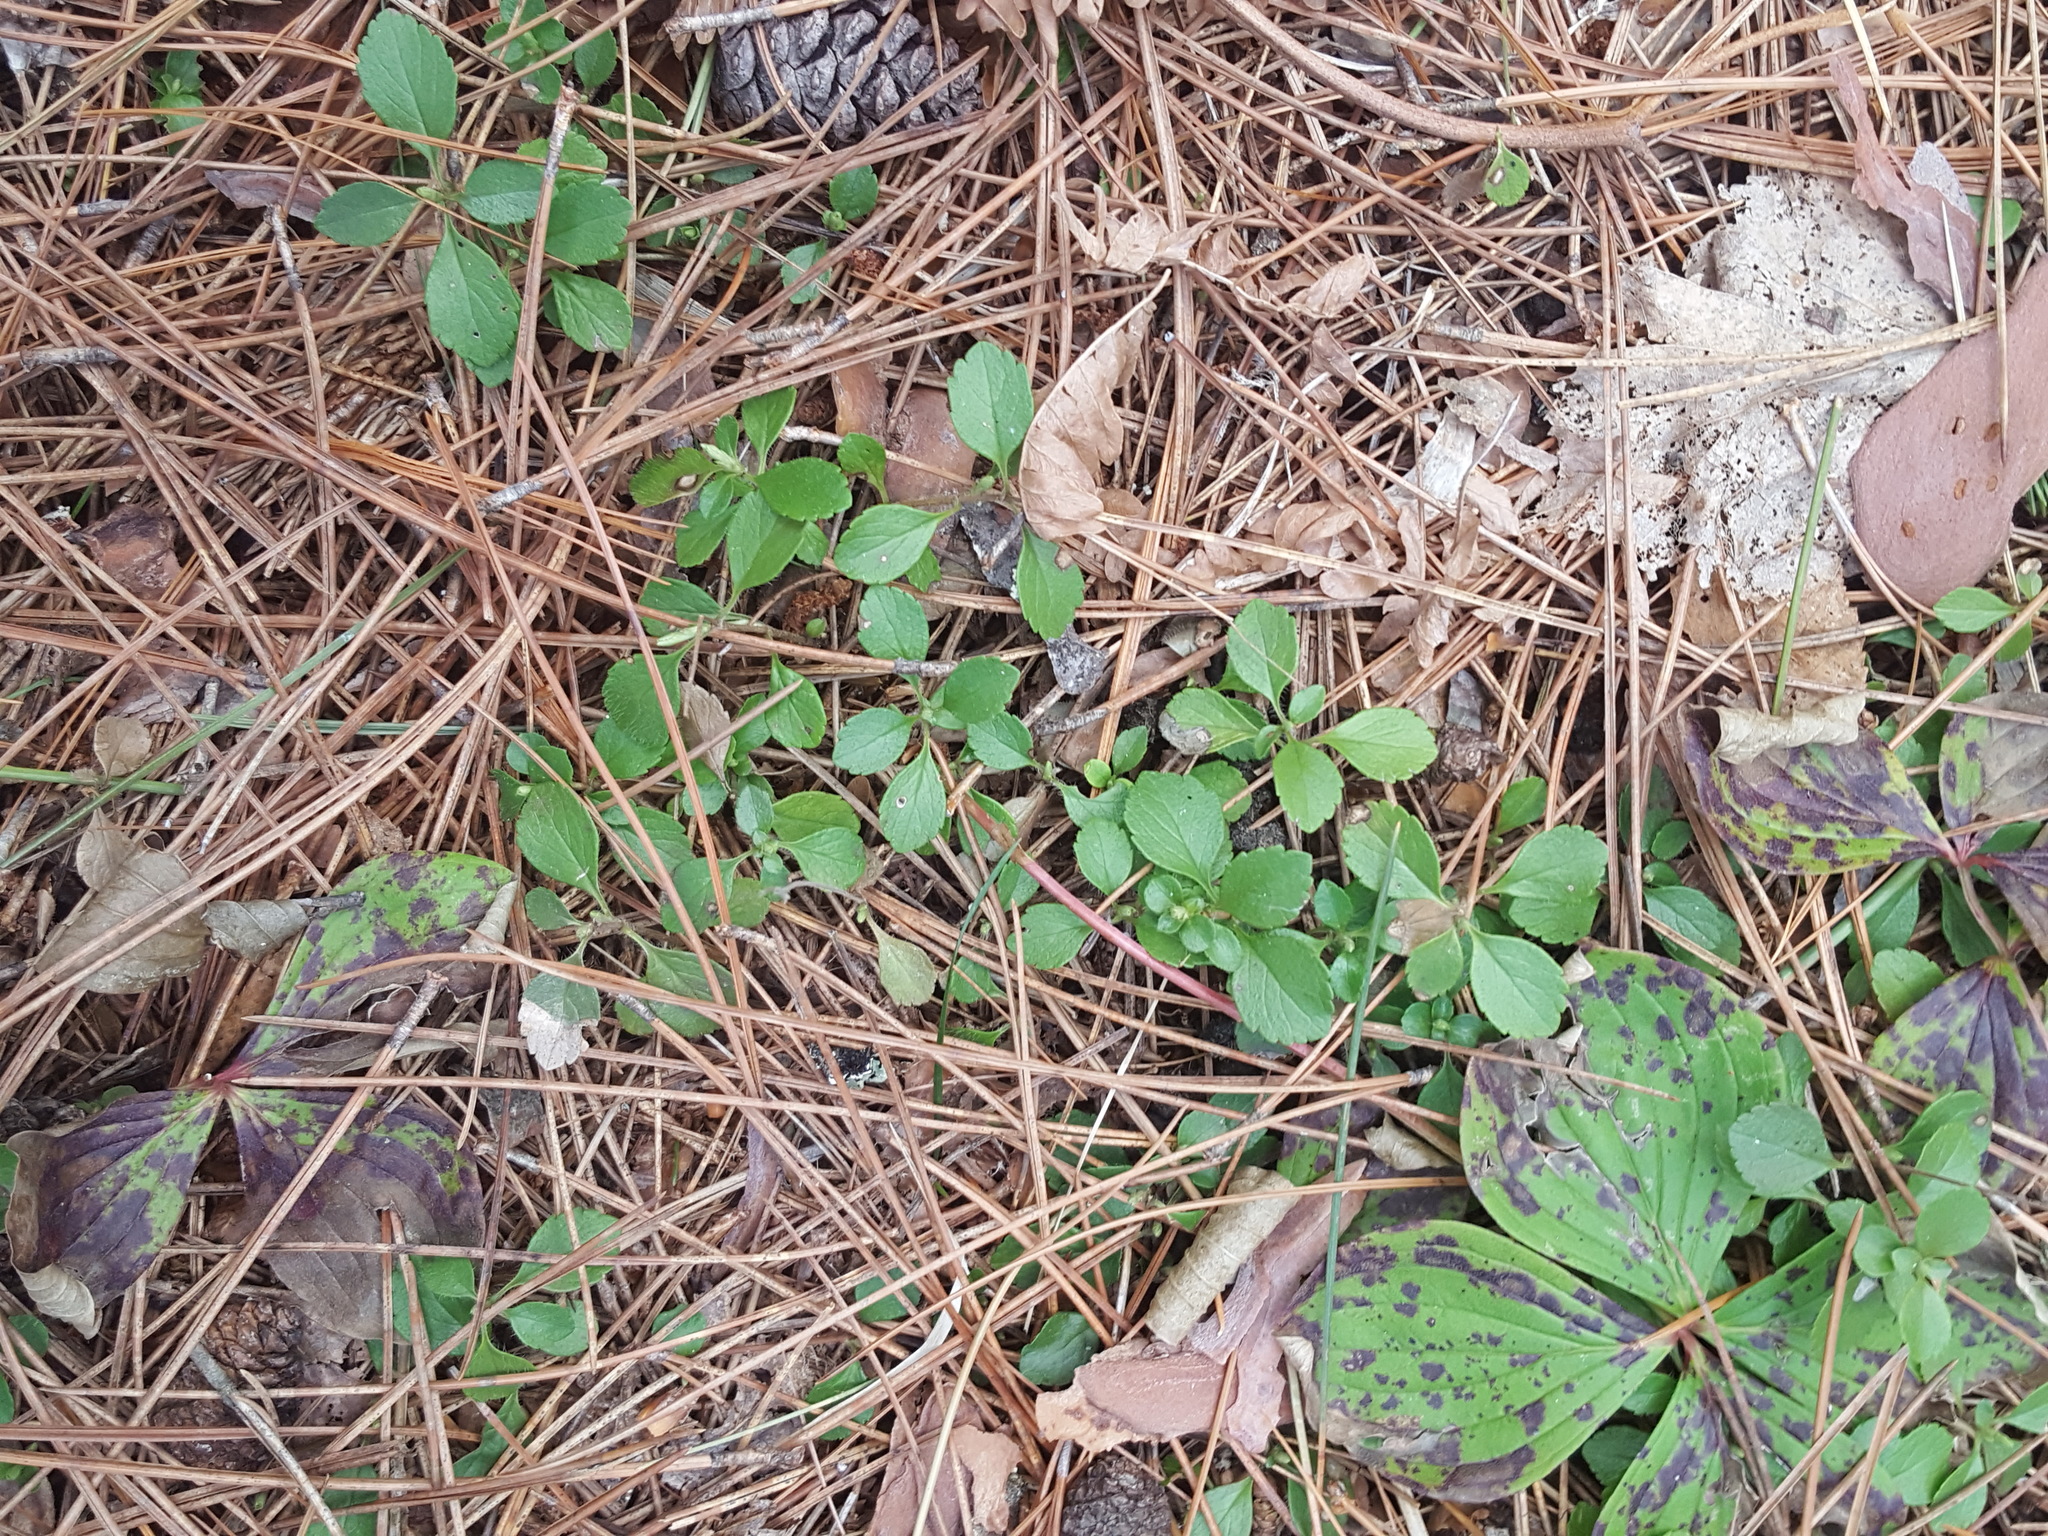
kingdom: Plantae
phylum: Tracheophyta
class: Magnoliopsida
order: Dipsacales
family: Caprifoliaceae
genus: Linnaea
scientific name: Linnaea borealis
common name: Twinflower
